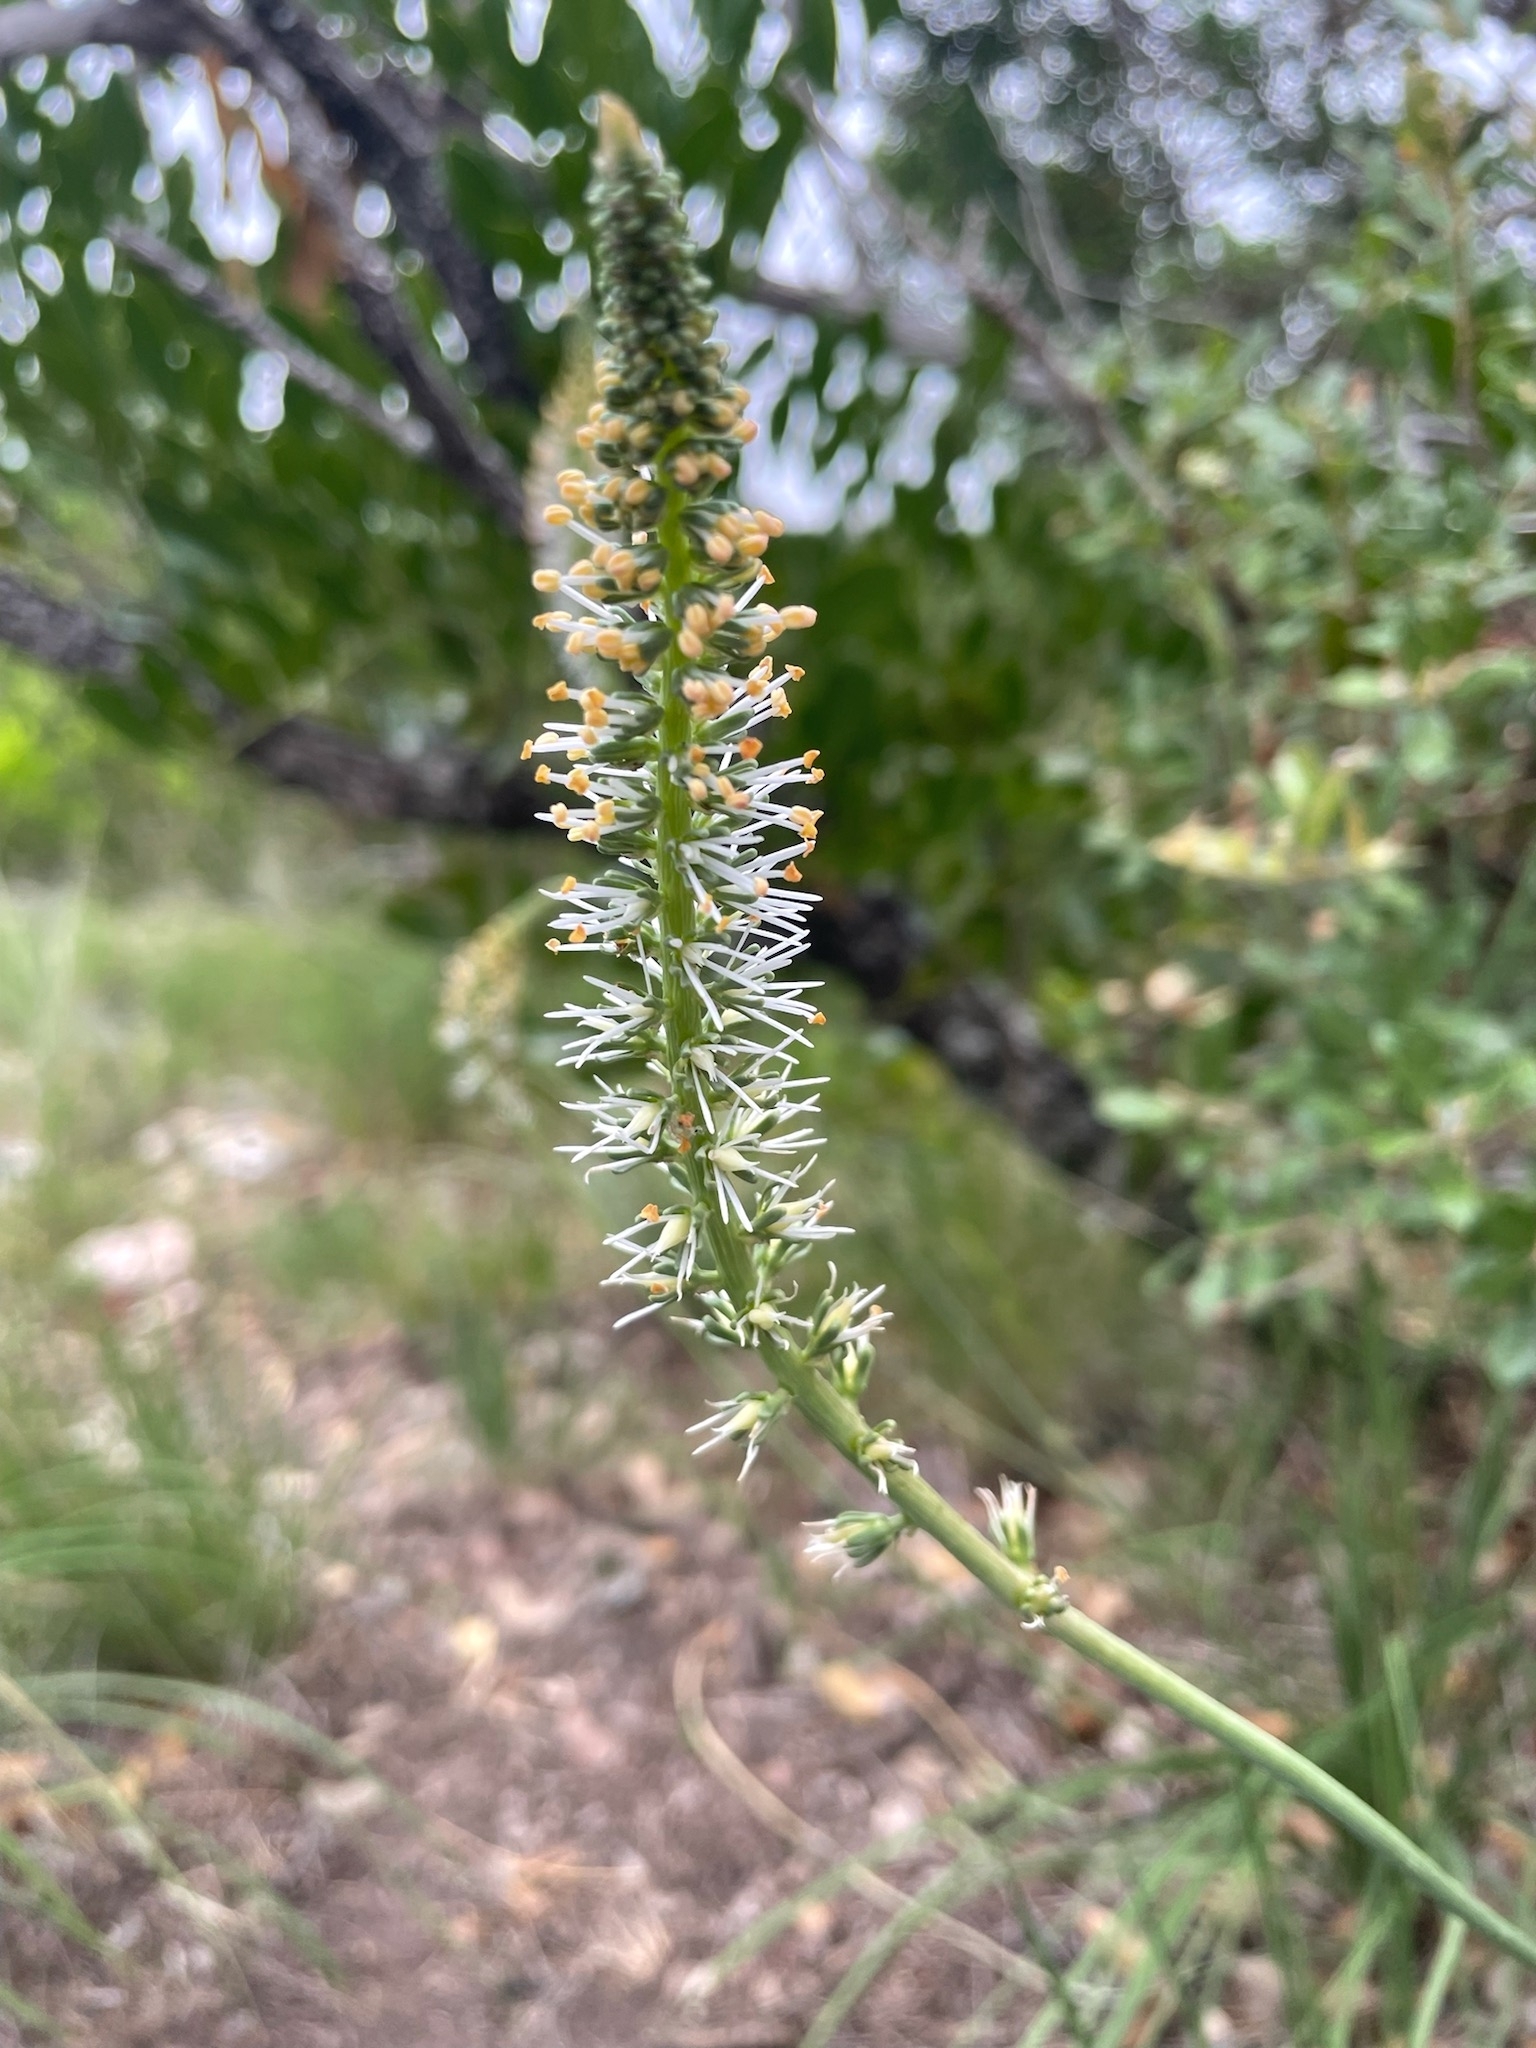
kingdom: Plantae
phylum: Tracheophyta
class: Liliopsida
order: Liliales
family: Melanthiaceae
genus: Schoenocaulon
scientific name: Schoenocaulon texanum
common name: Texas feather-shank
